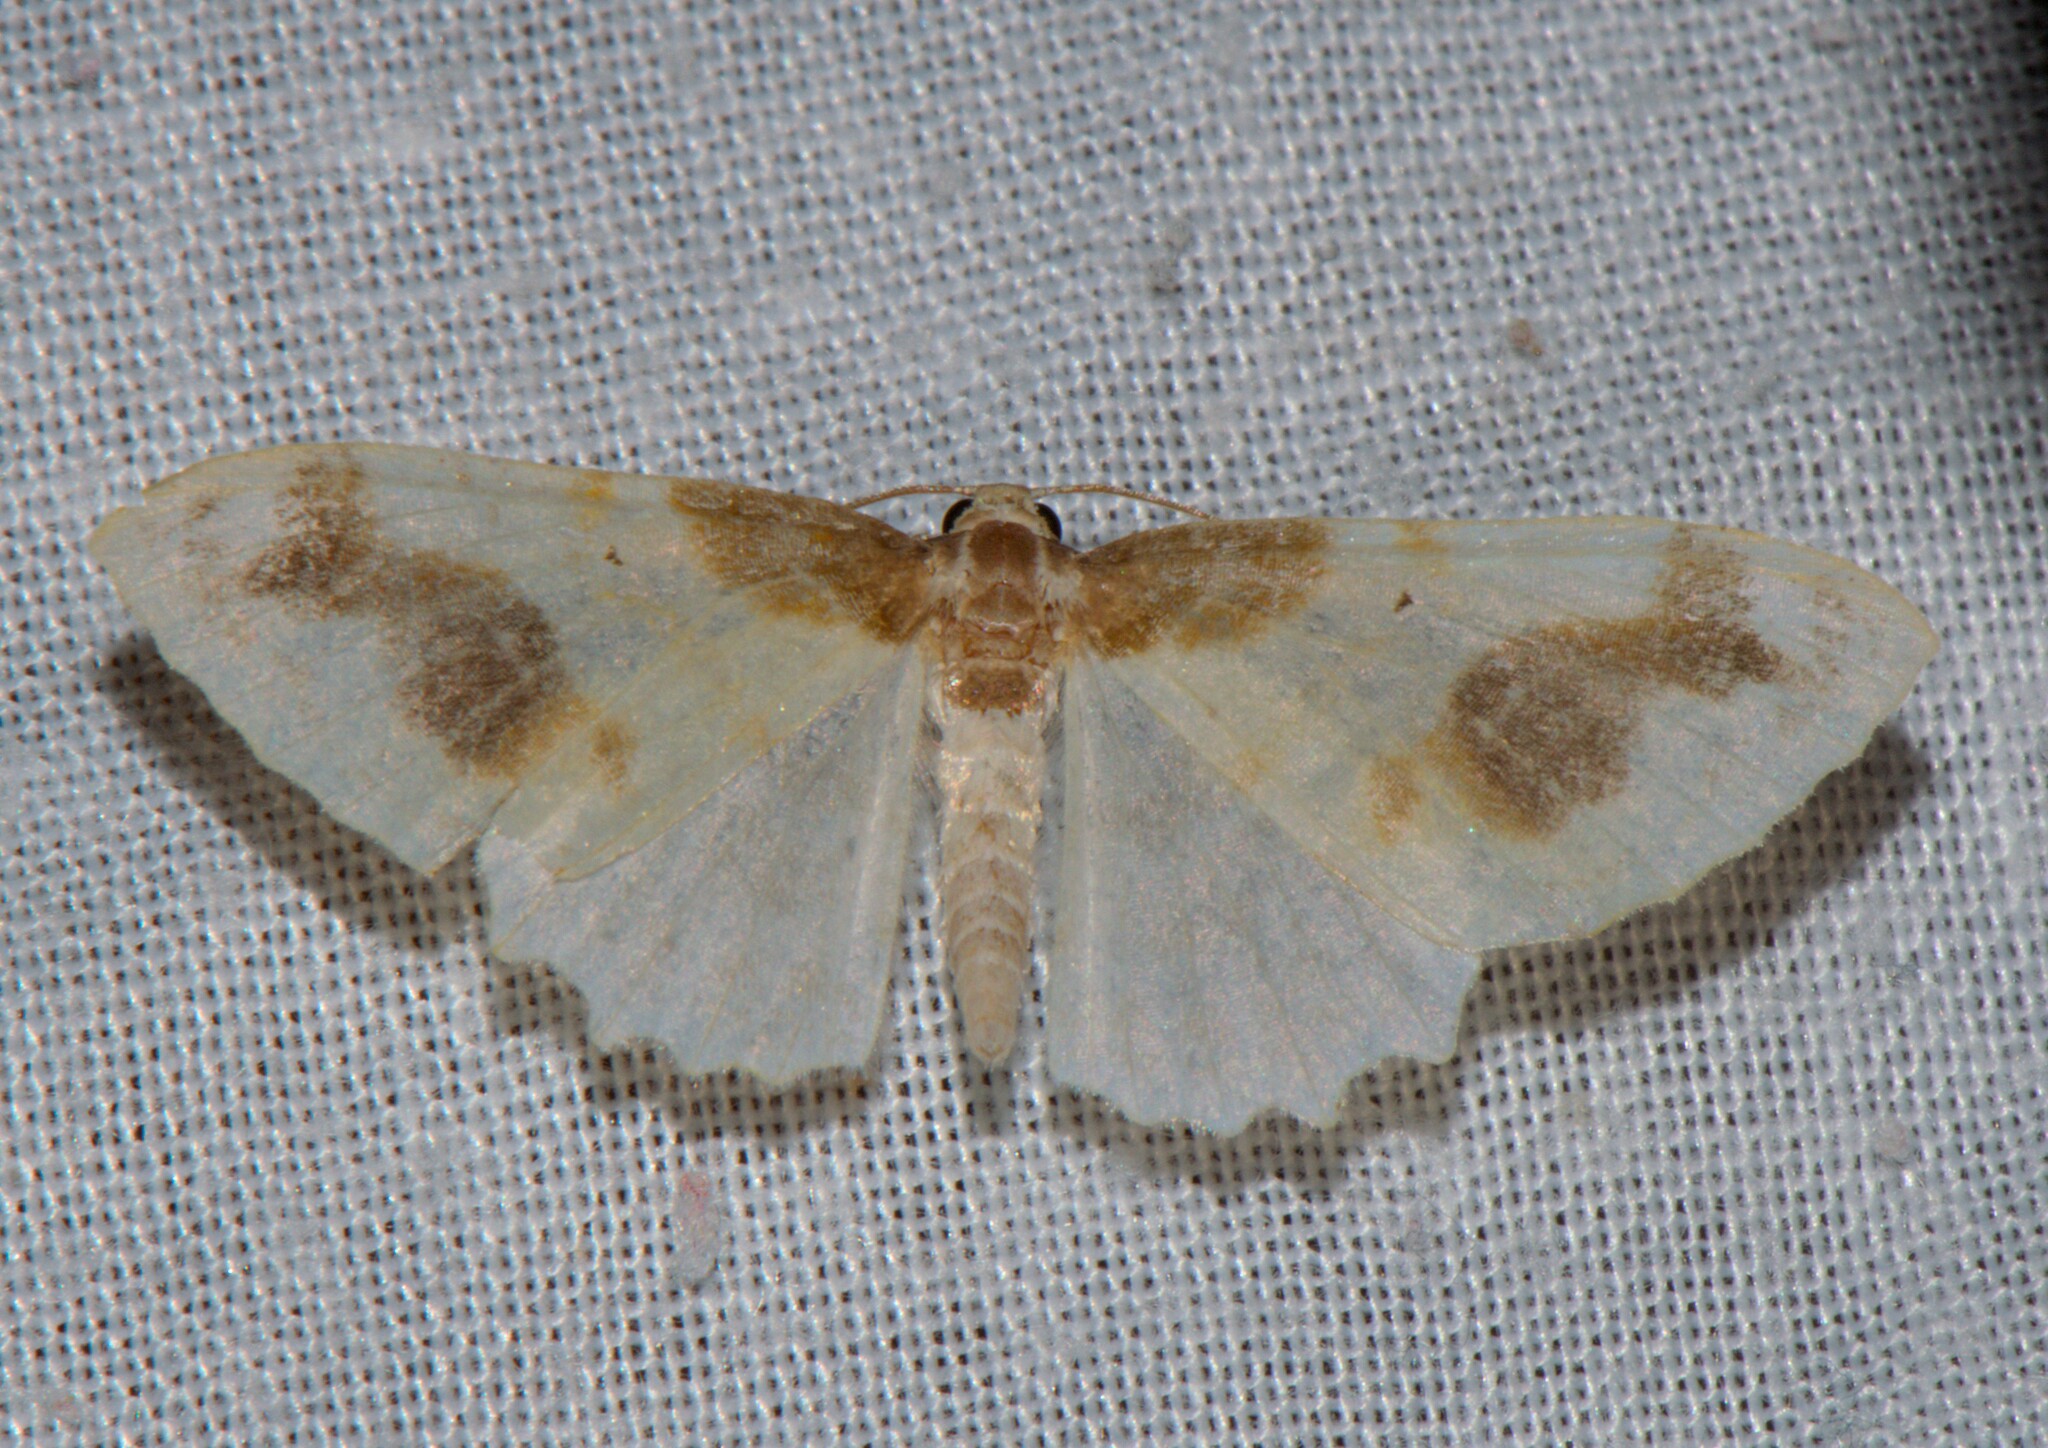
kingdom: Animalia
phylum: Arthropoda
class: Insecta
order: Lepidoptera
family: Geometridae
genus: Agnibesa
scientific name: Agnibesa pictaria
